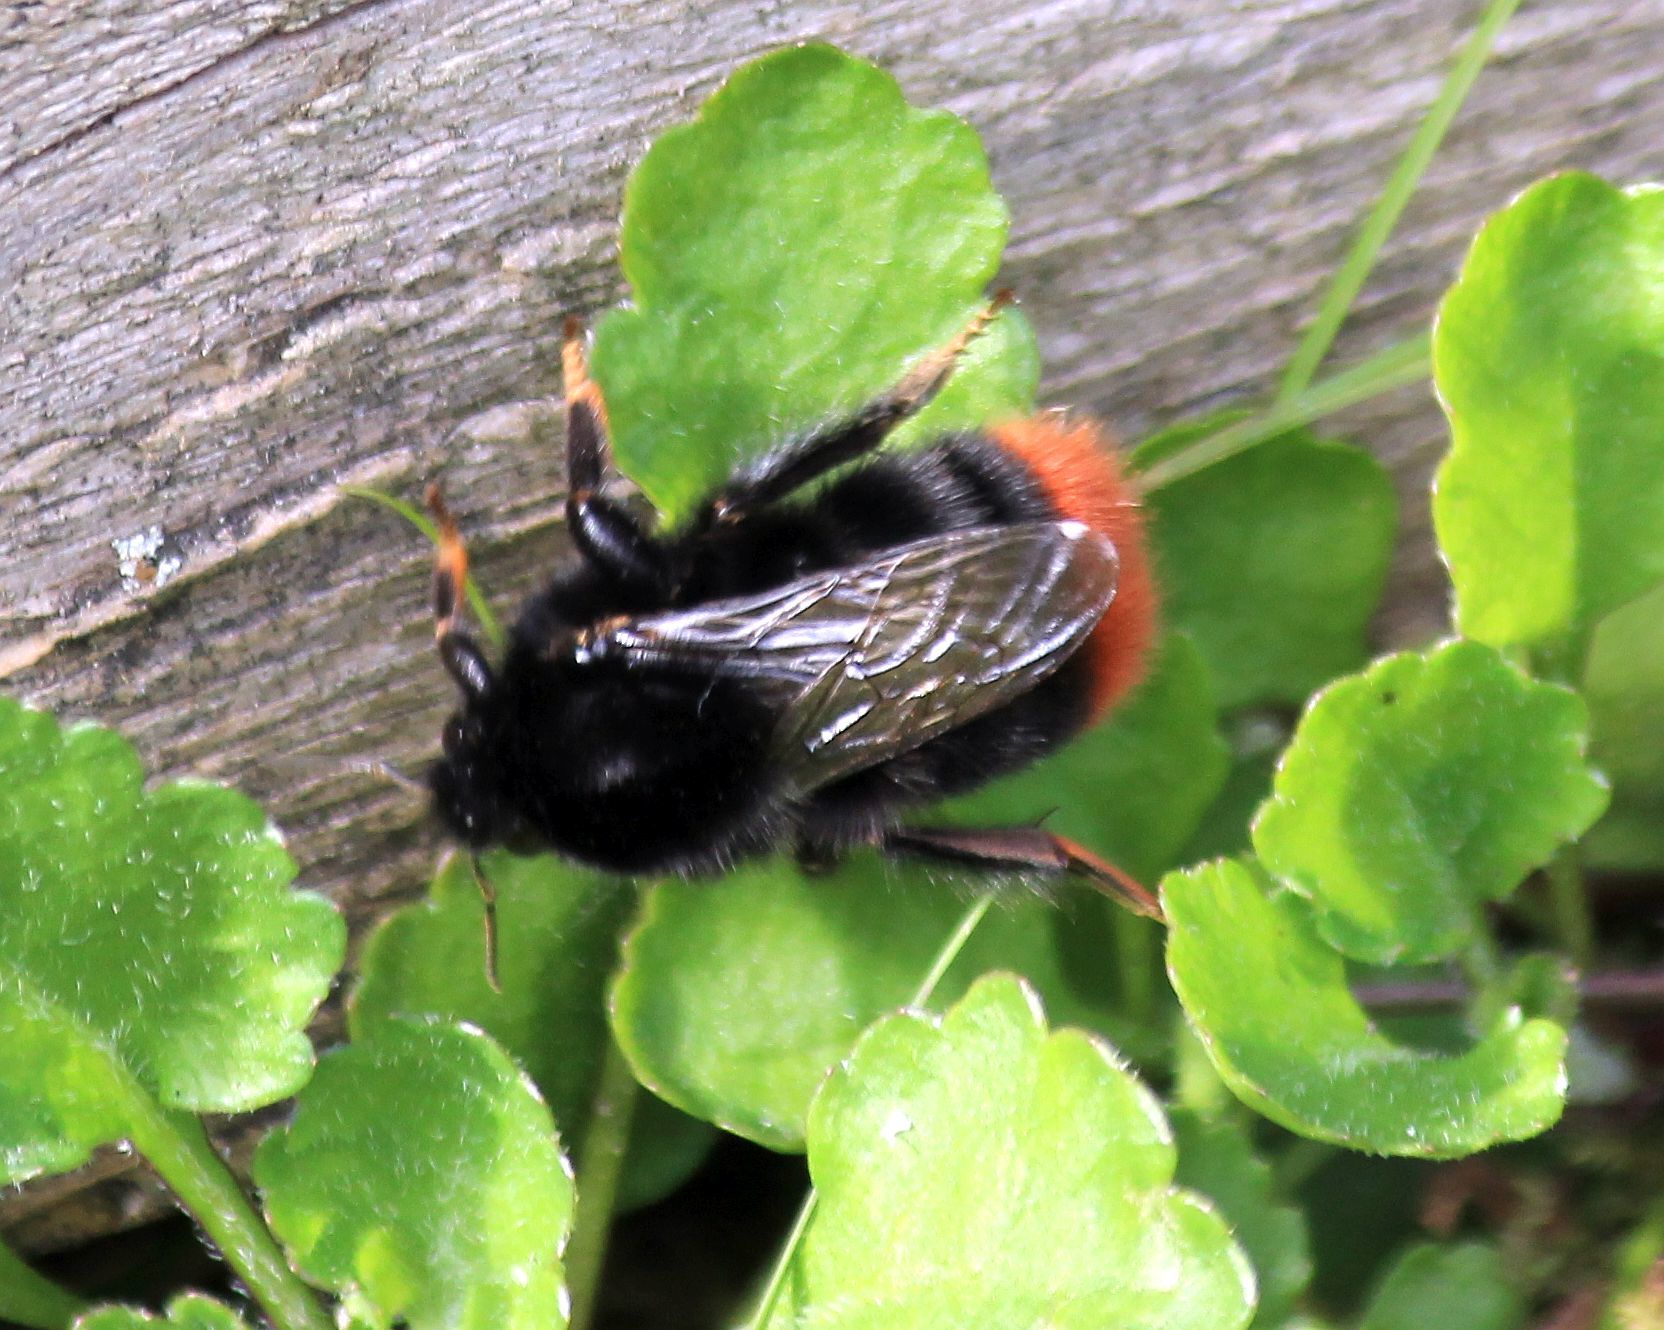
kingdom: Animalia
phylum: Arthropoda
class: Insecta
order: Hymenoptera
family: Apidae
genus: Bombus
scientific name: Bombus lapidarius
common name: Large red-tailed humble-bee
